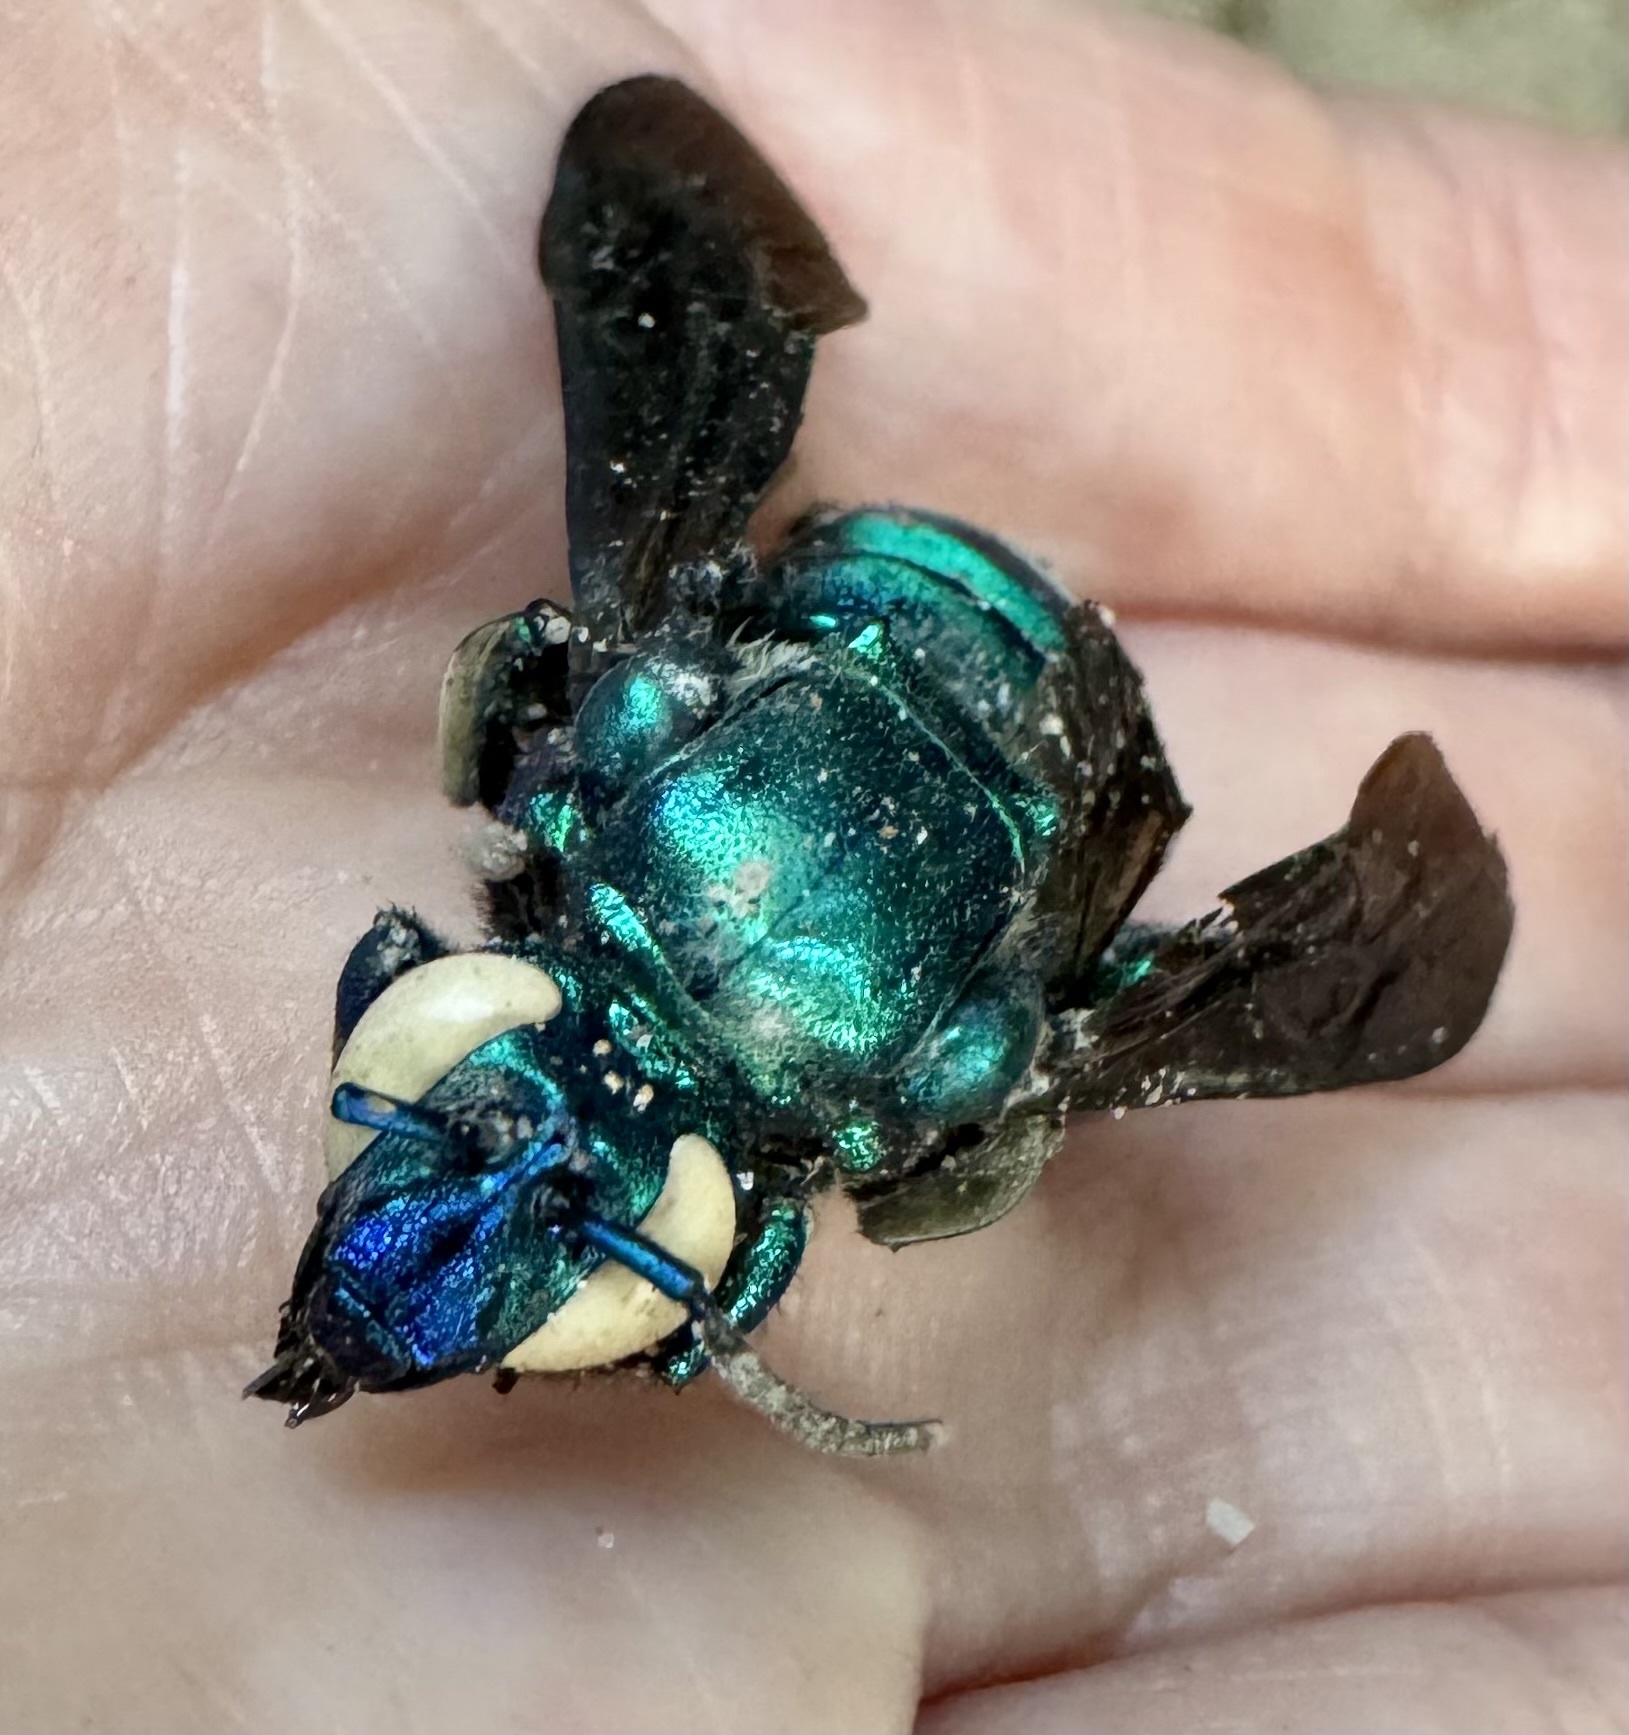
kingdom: Animalia
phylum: Arthropoda
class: Insecta
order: Hymenoptera
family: Apidae
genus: Exaerete
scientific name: Exaerete frontalis
